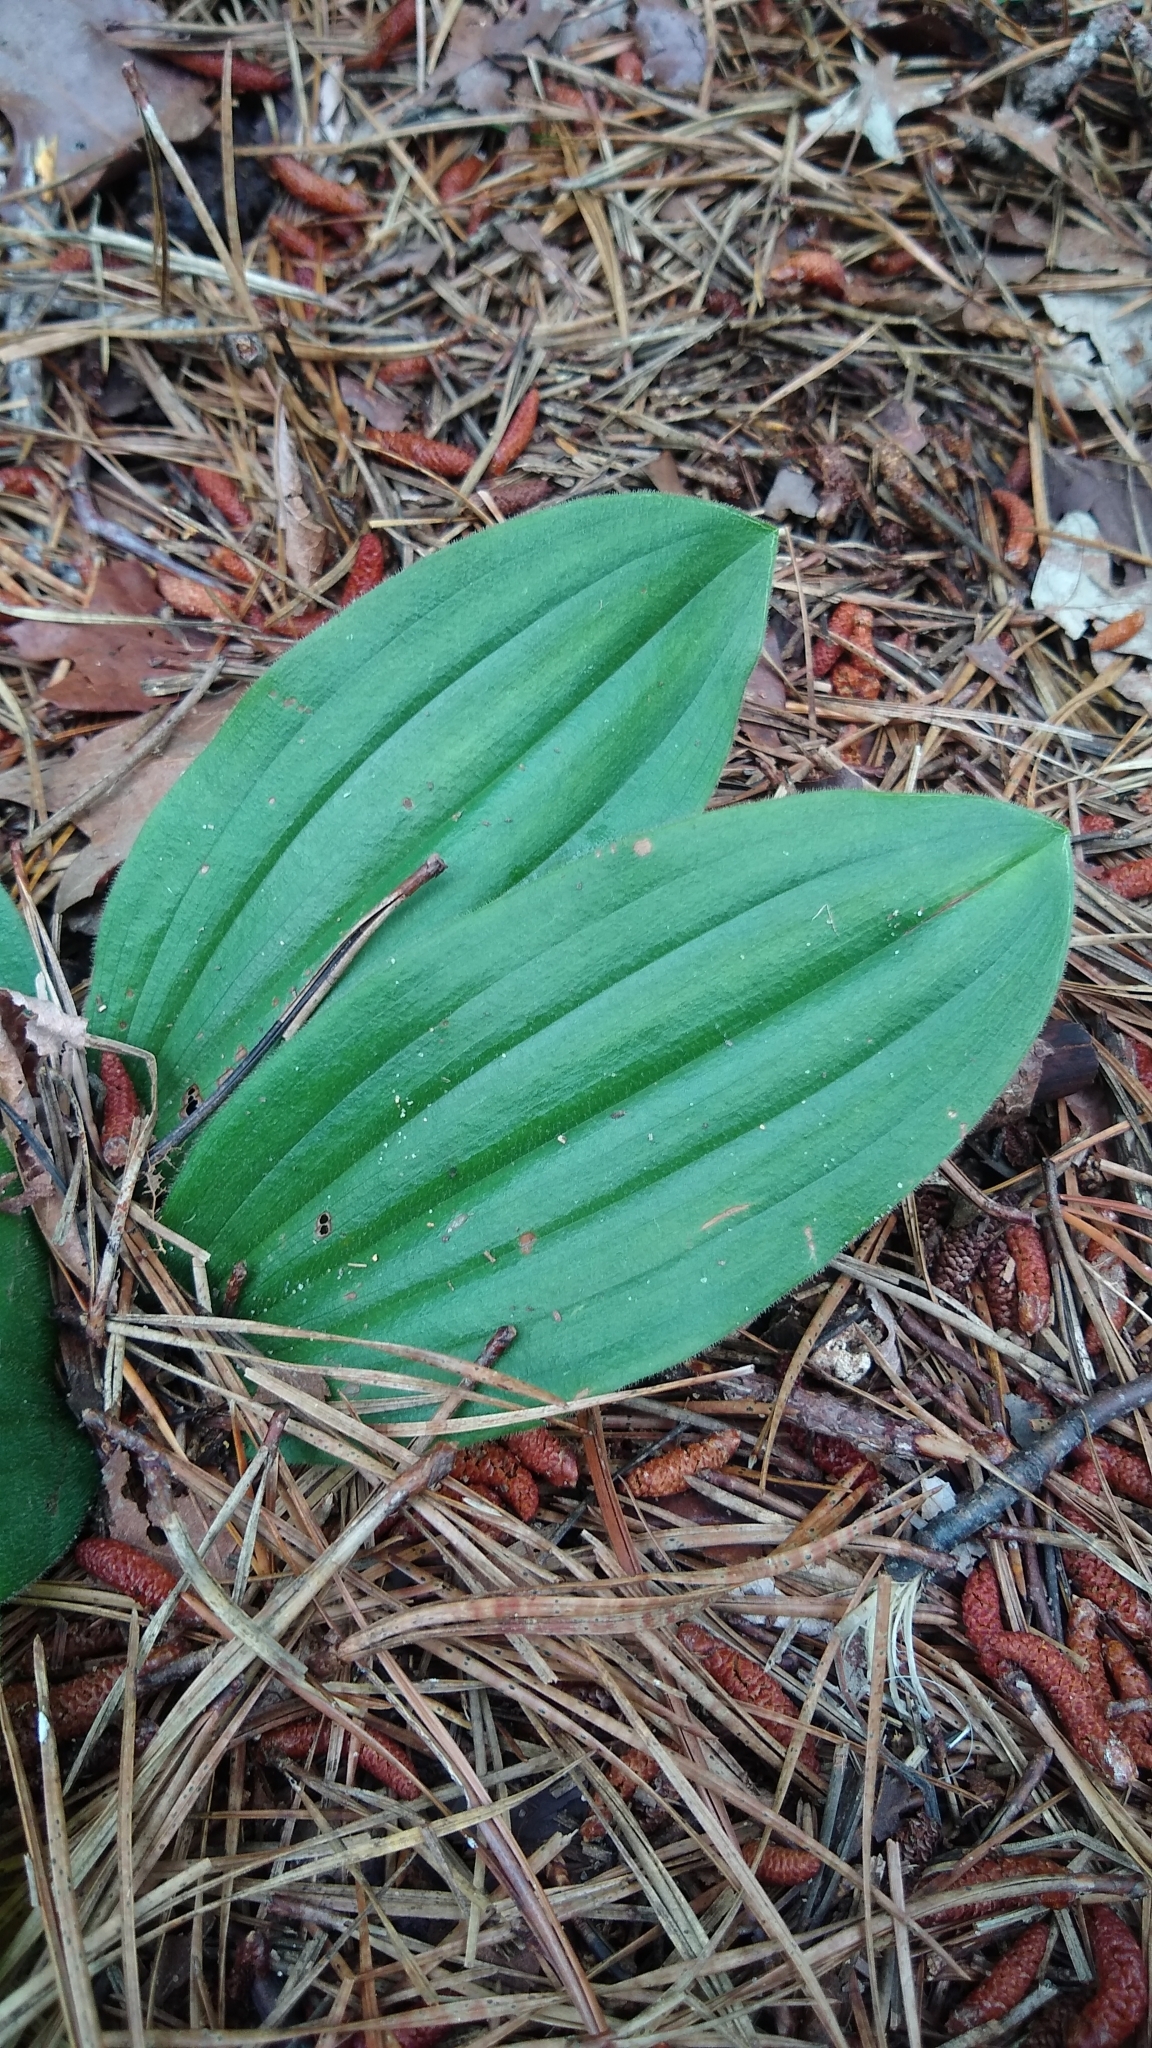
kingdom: Plantae
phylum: Tracheophyta
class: Liliopsida
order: Asparagales
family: Orchidaceae
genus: Cypripedium
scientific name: Cypripedium acaule
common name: Pink lady's-slipper
